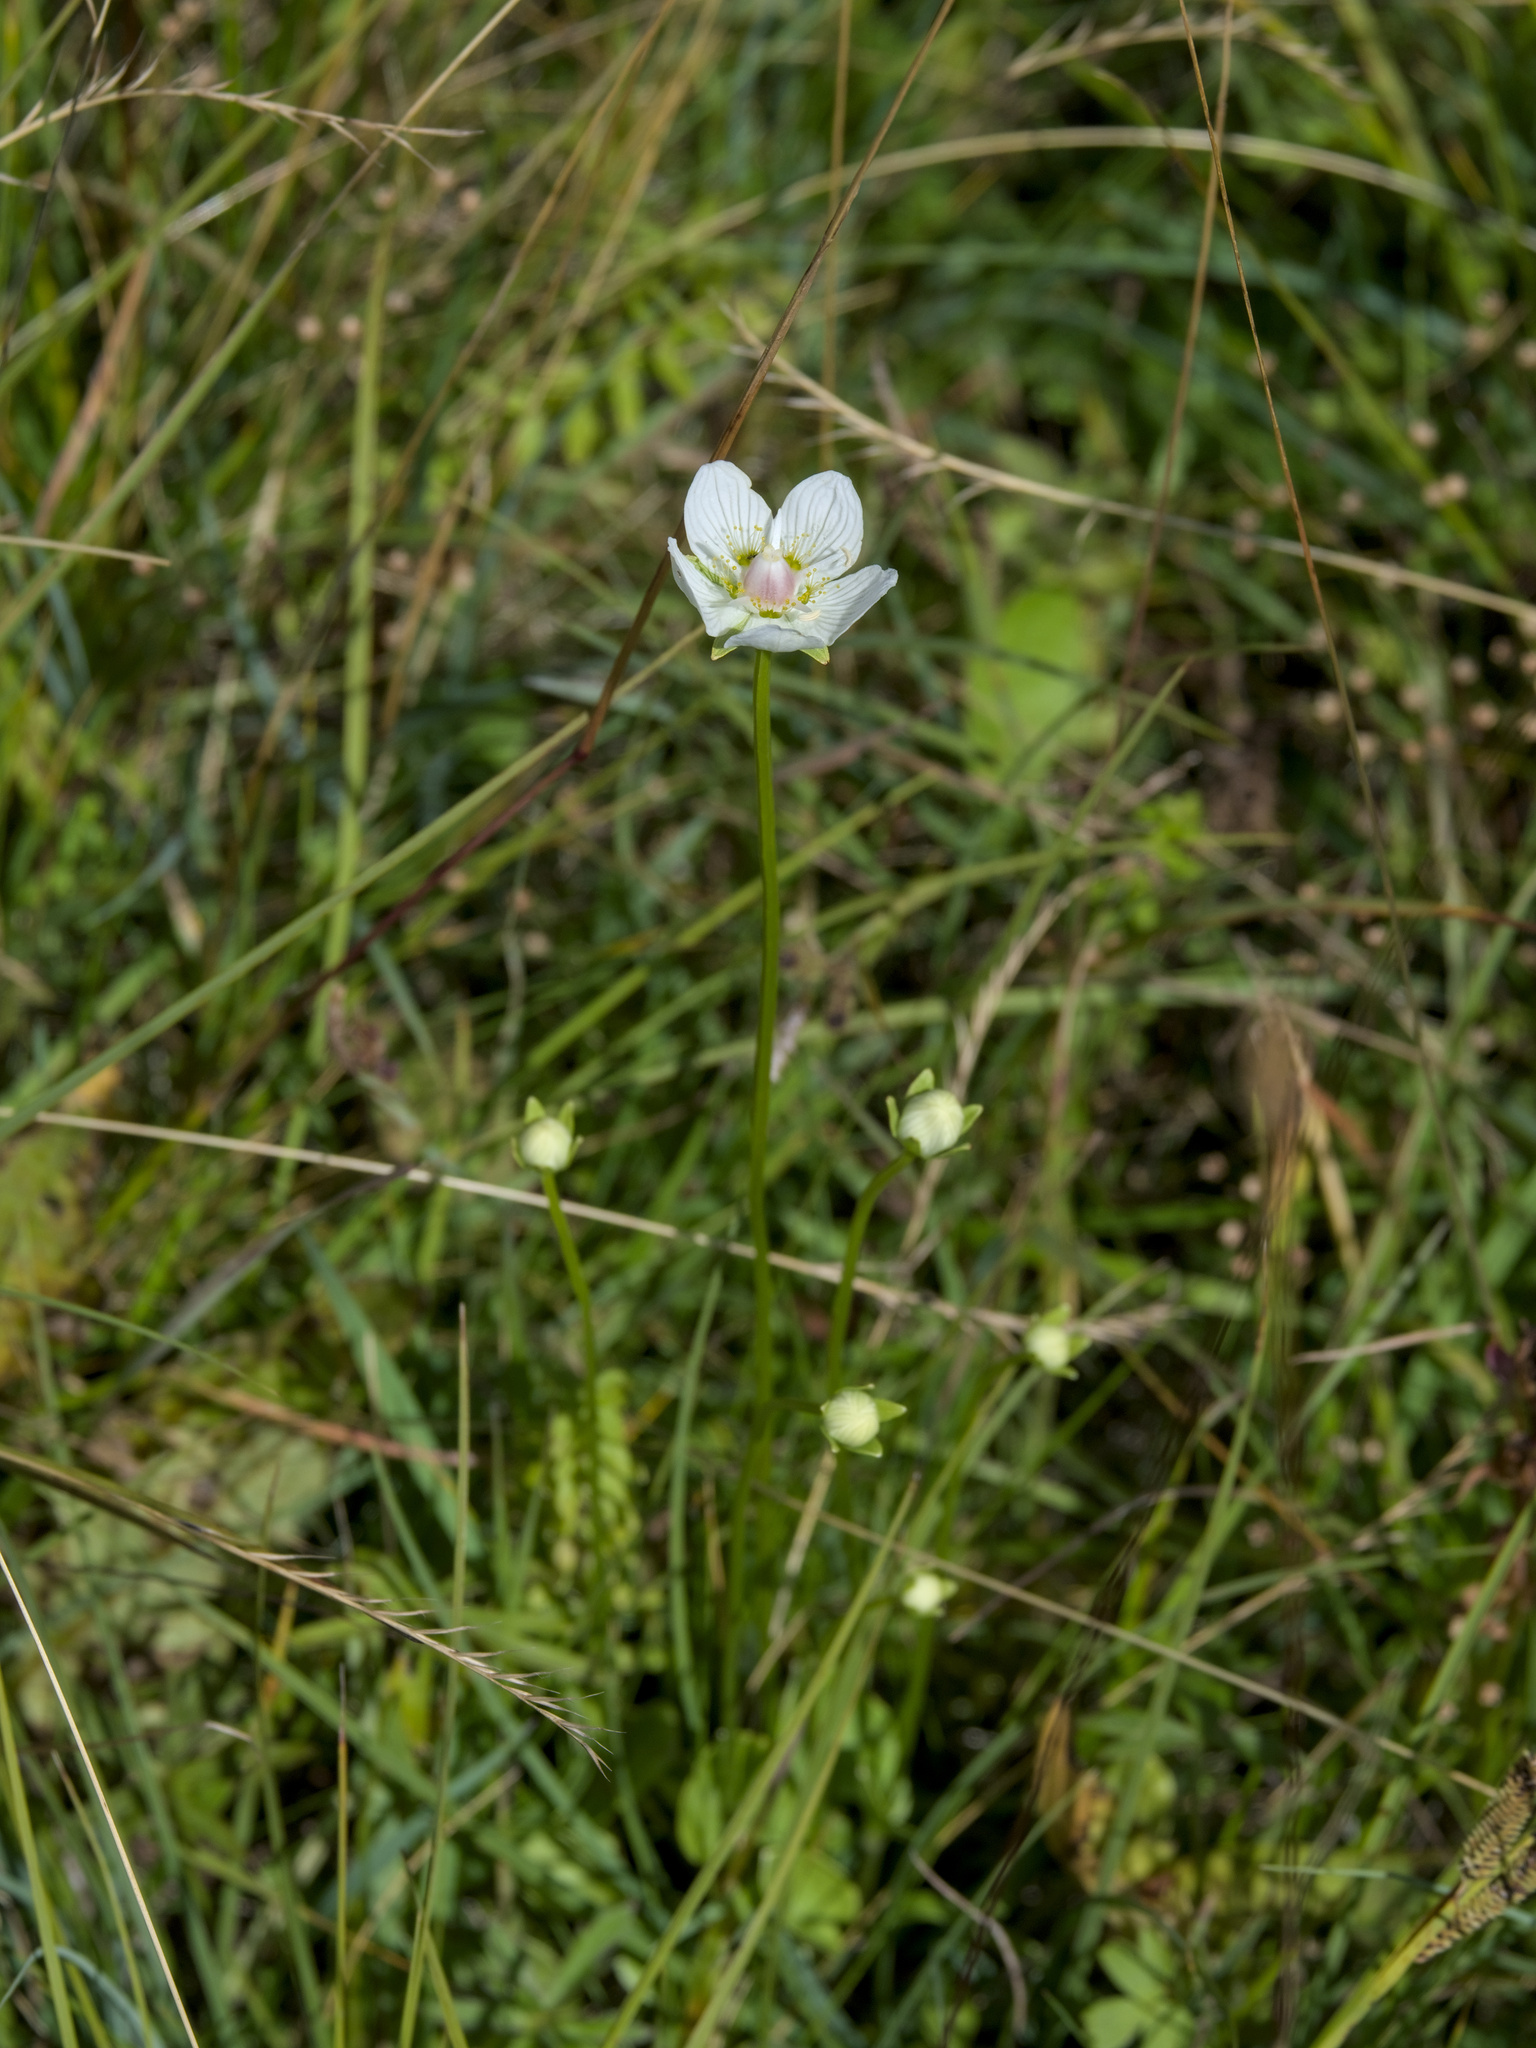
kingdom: Plantae
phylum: Tracheophyta
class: Magnoliopsida
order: Celastrales
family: Parnassiaceae
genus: Parnassia
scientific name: Parnassia palustris
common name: Grass-of-parnassus
